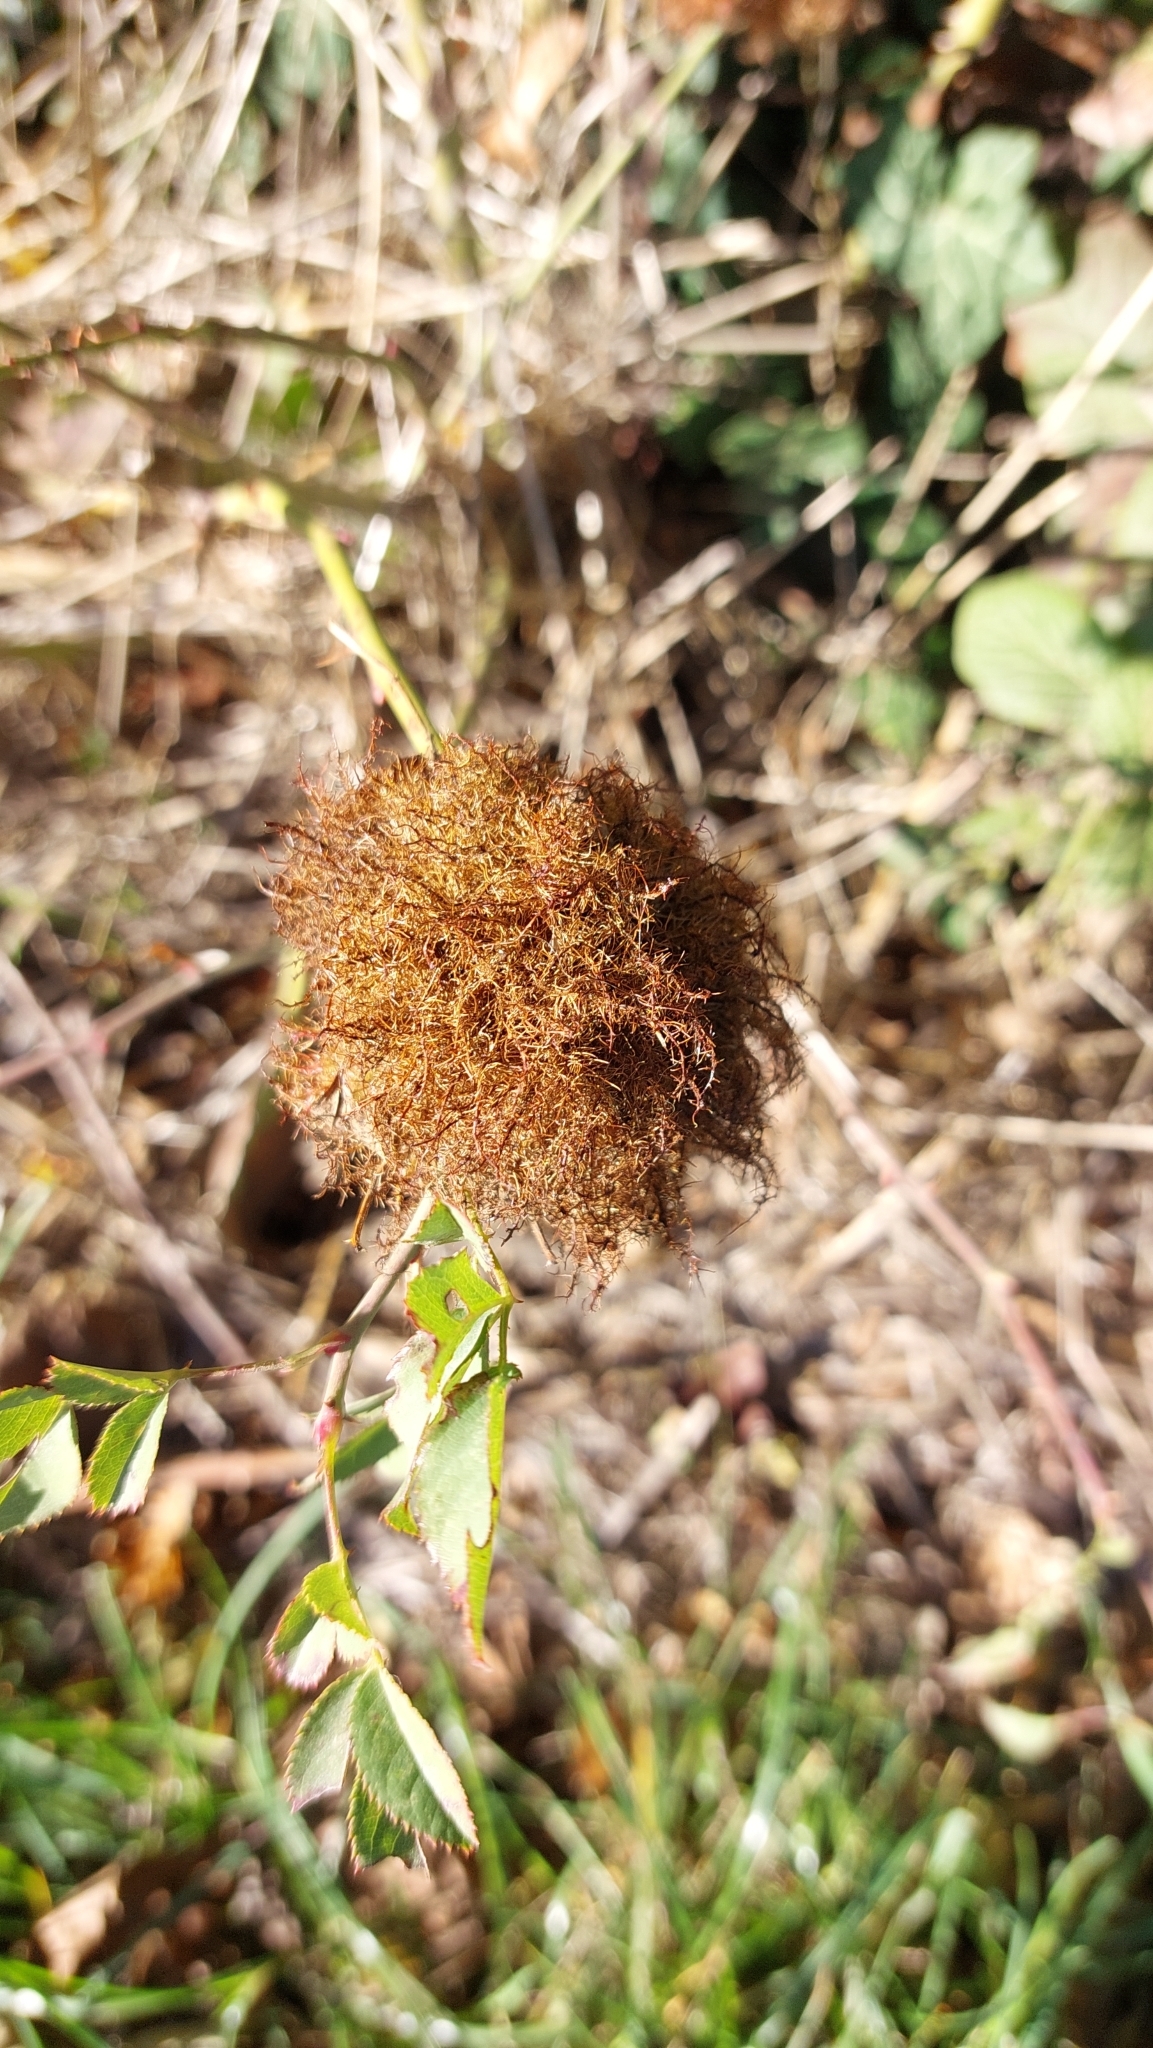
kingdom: Animalia
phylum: Arthropoda
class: Insecta
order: Hymenoptera
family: Cynipidae
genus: Diplolepis
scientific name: Diplolepis rosae
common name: Bedeguar gall
